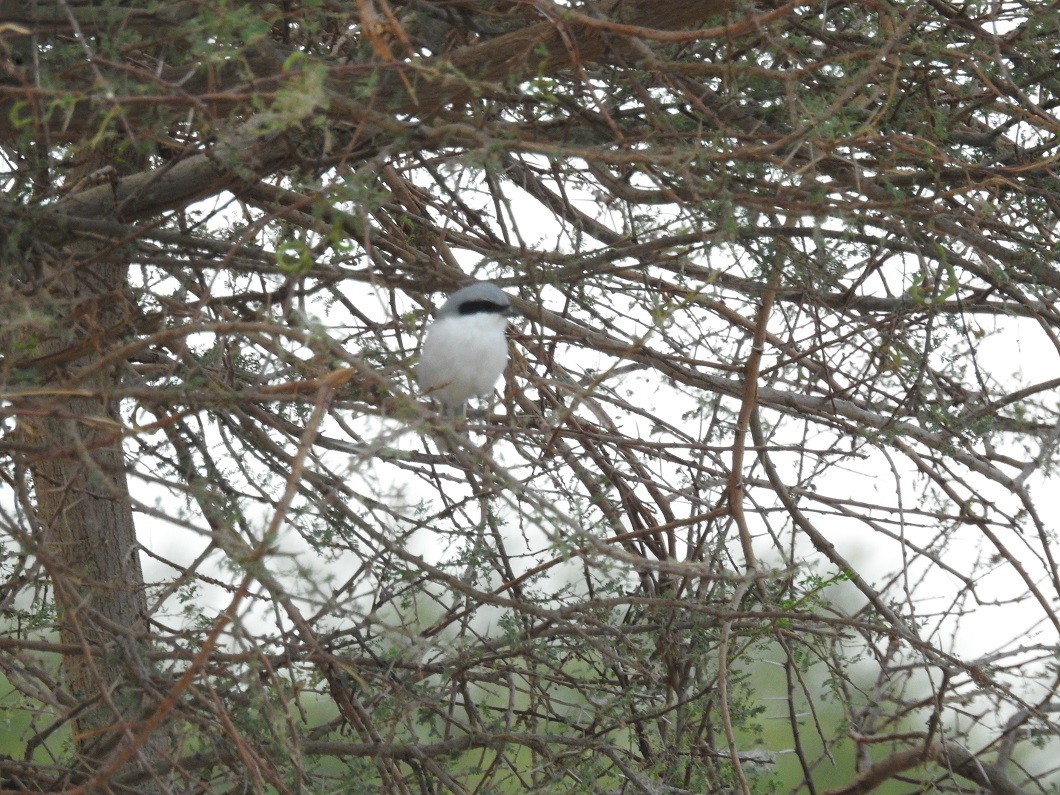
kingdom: Animalia
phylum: Chordata
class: Aves
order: Passeriformes
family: Laniidae
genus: Lanius
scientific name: Lanius excubitor
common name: Great grey shrike
